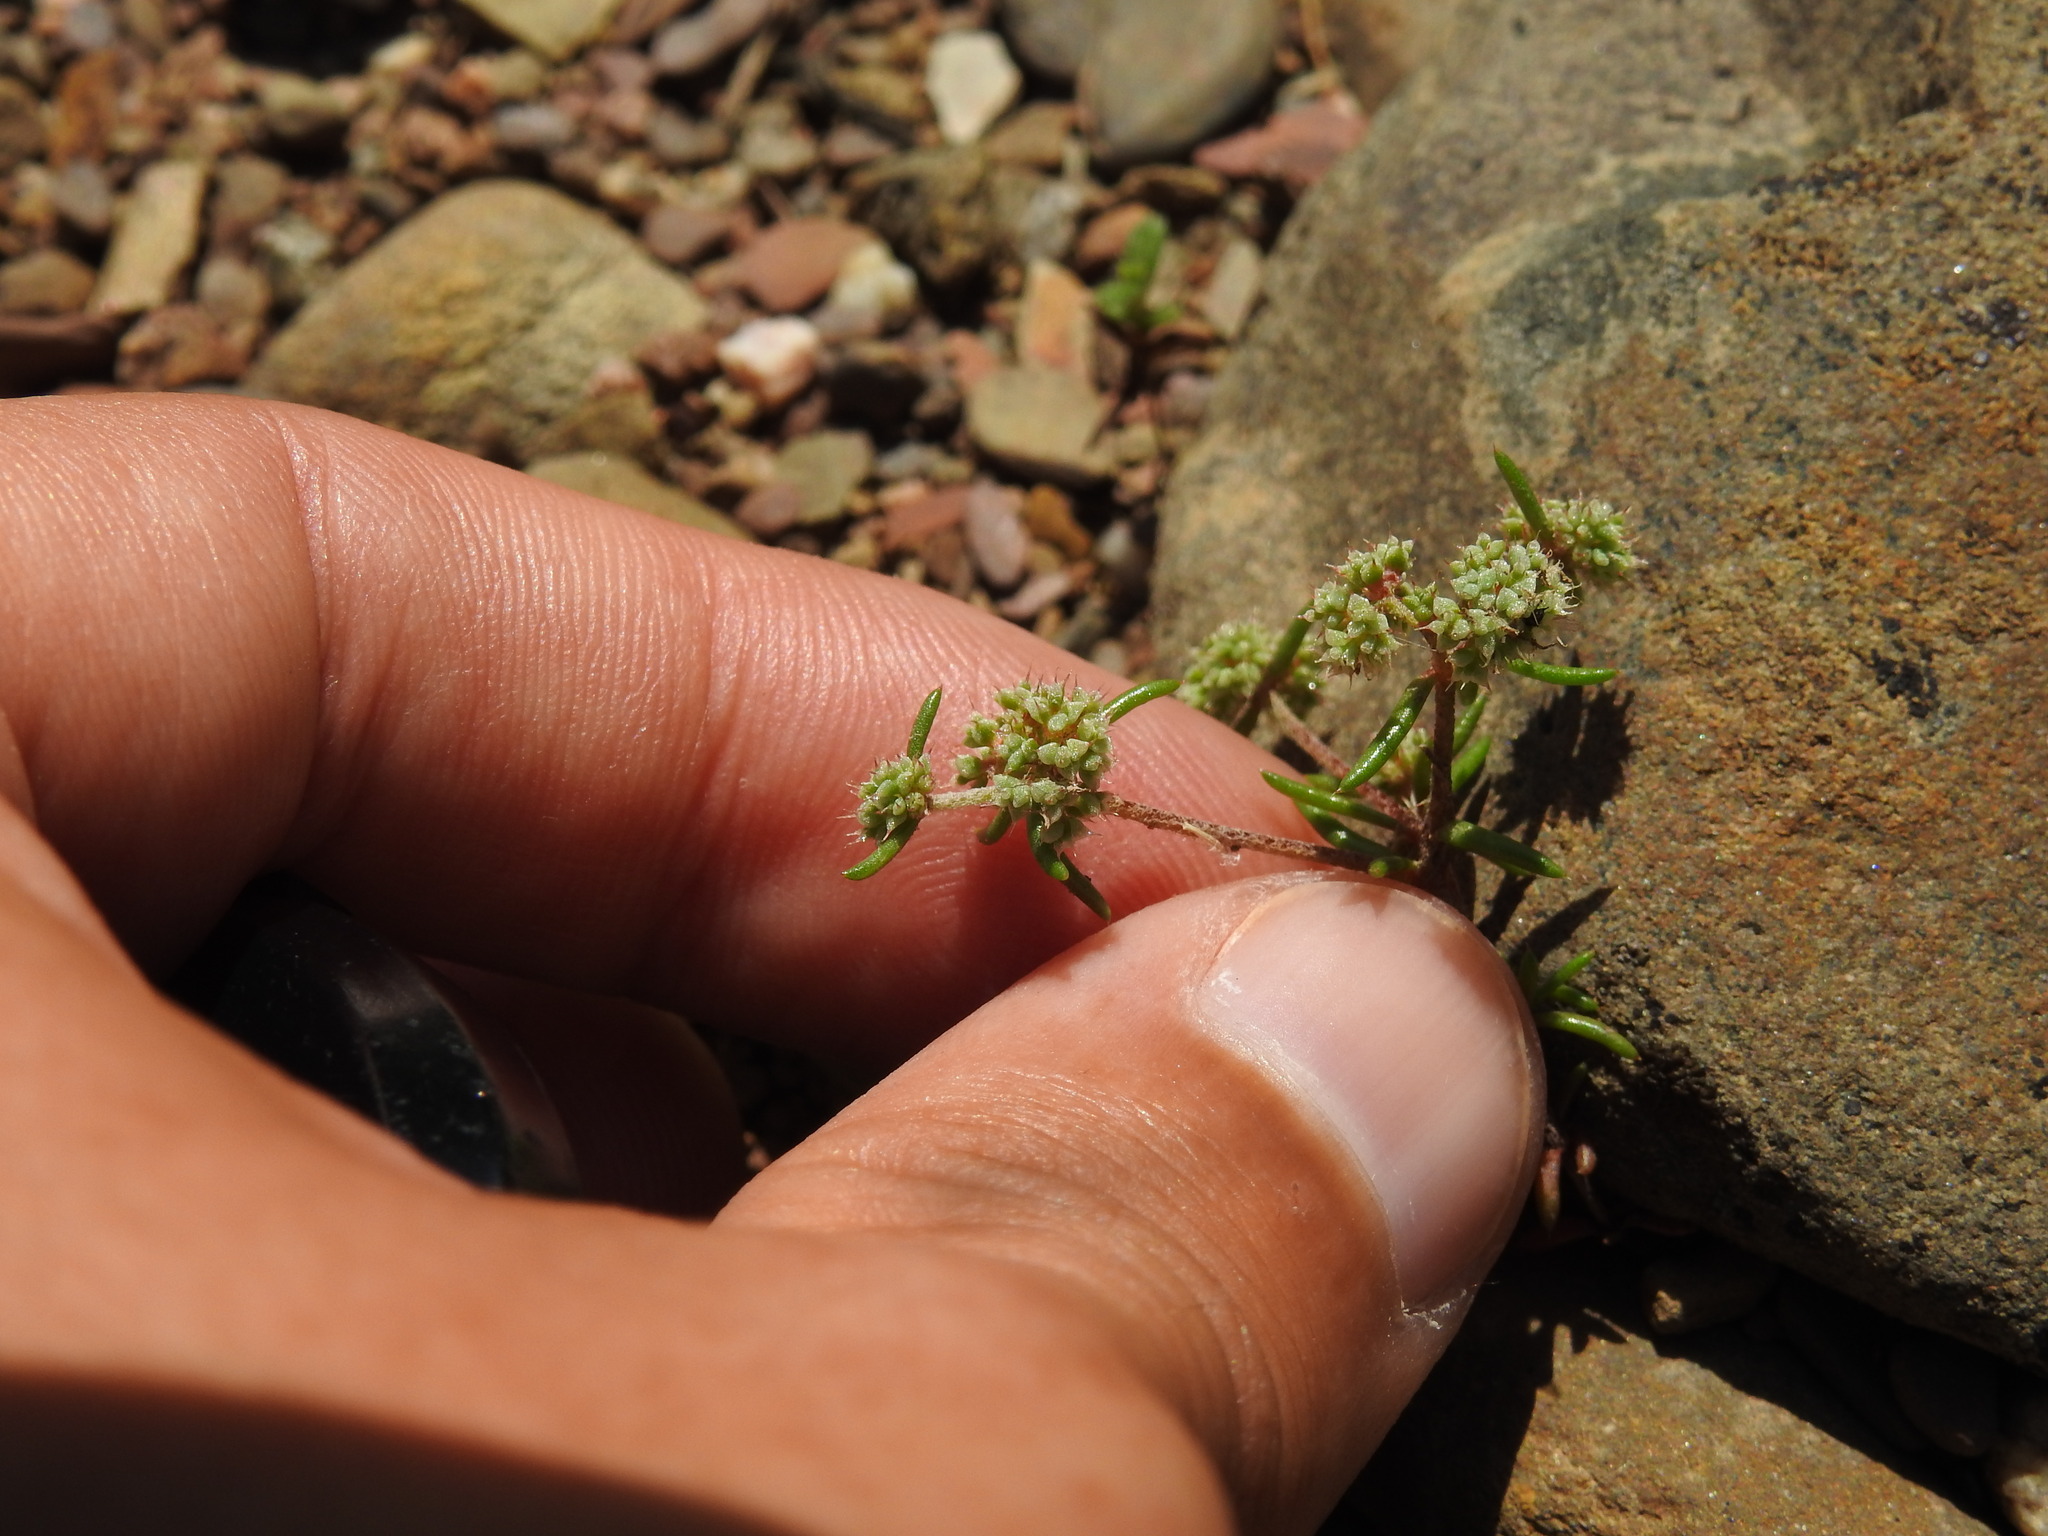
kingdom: Plantae
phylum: Tracheophyta
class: Magnoliopsida
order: Caryophyllales
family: Caryophyllaceae
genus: Chaetonychia
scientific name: Chaetonychia cymosa
